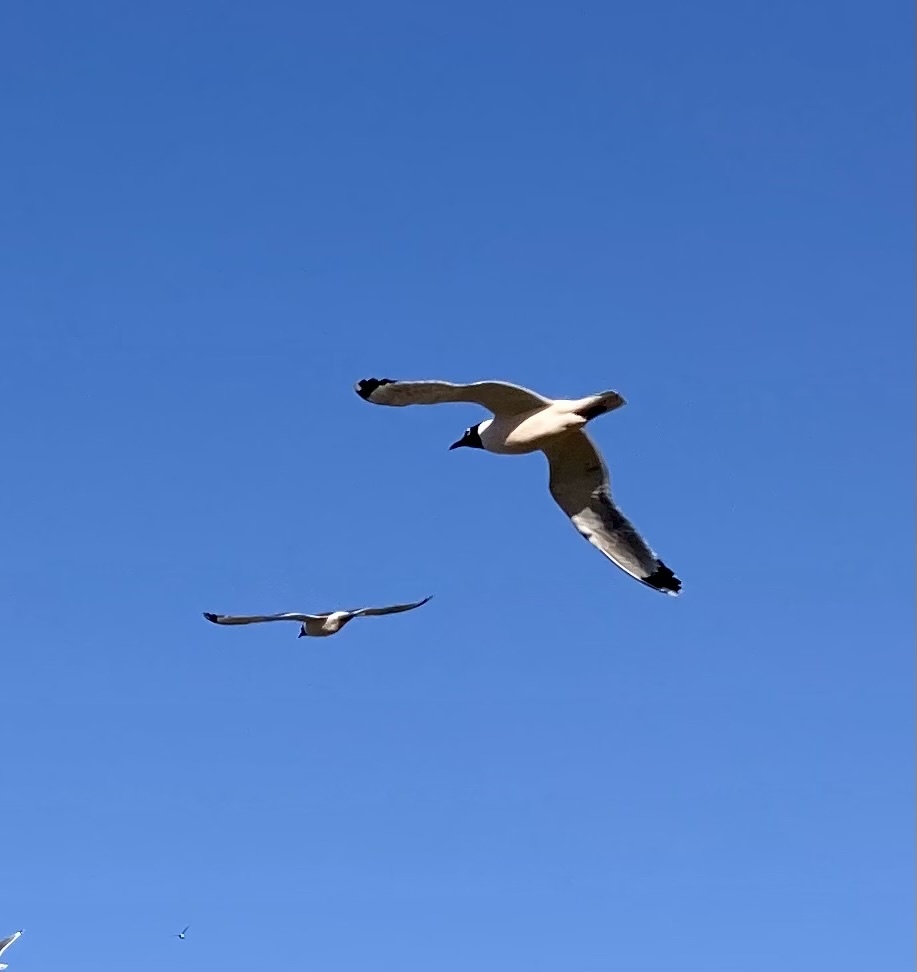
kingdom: Animalia
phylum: Chordata
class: Aves
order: Charadriiformes
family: Laridae
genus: Leucophaeus
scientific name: Leucophaeus pipixcan
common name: Franklin's gull
